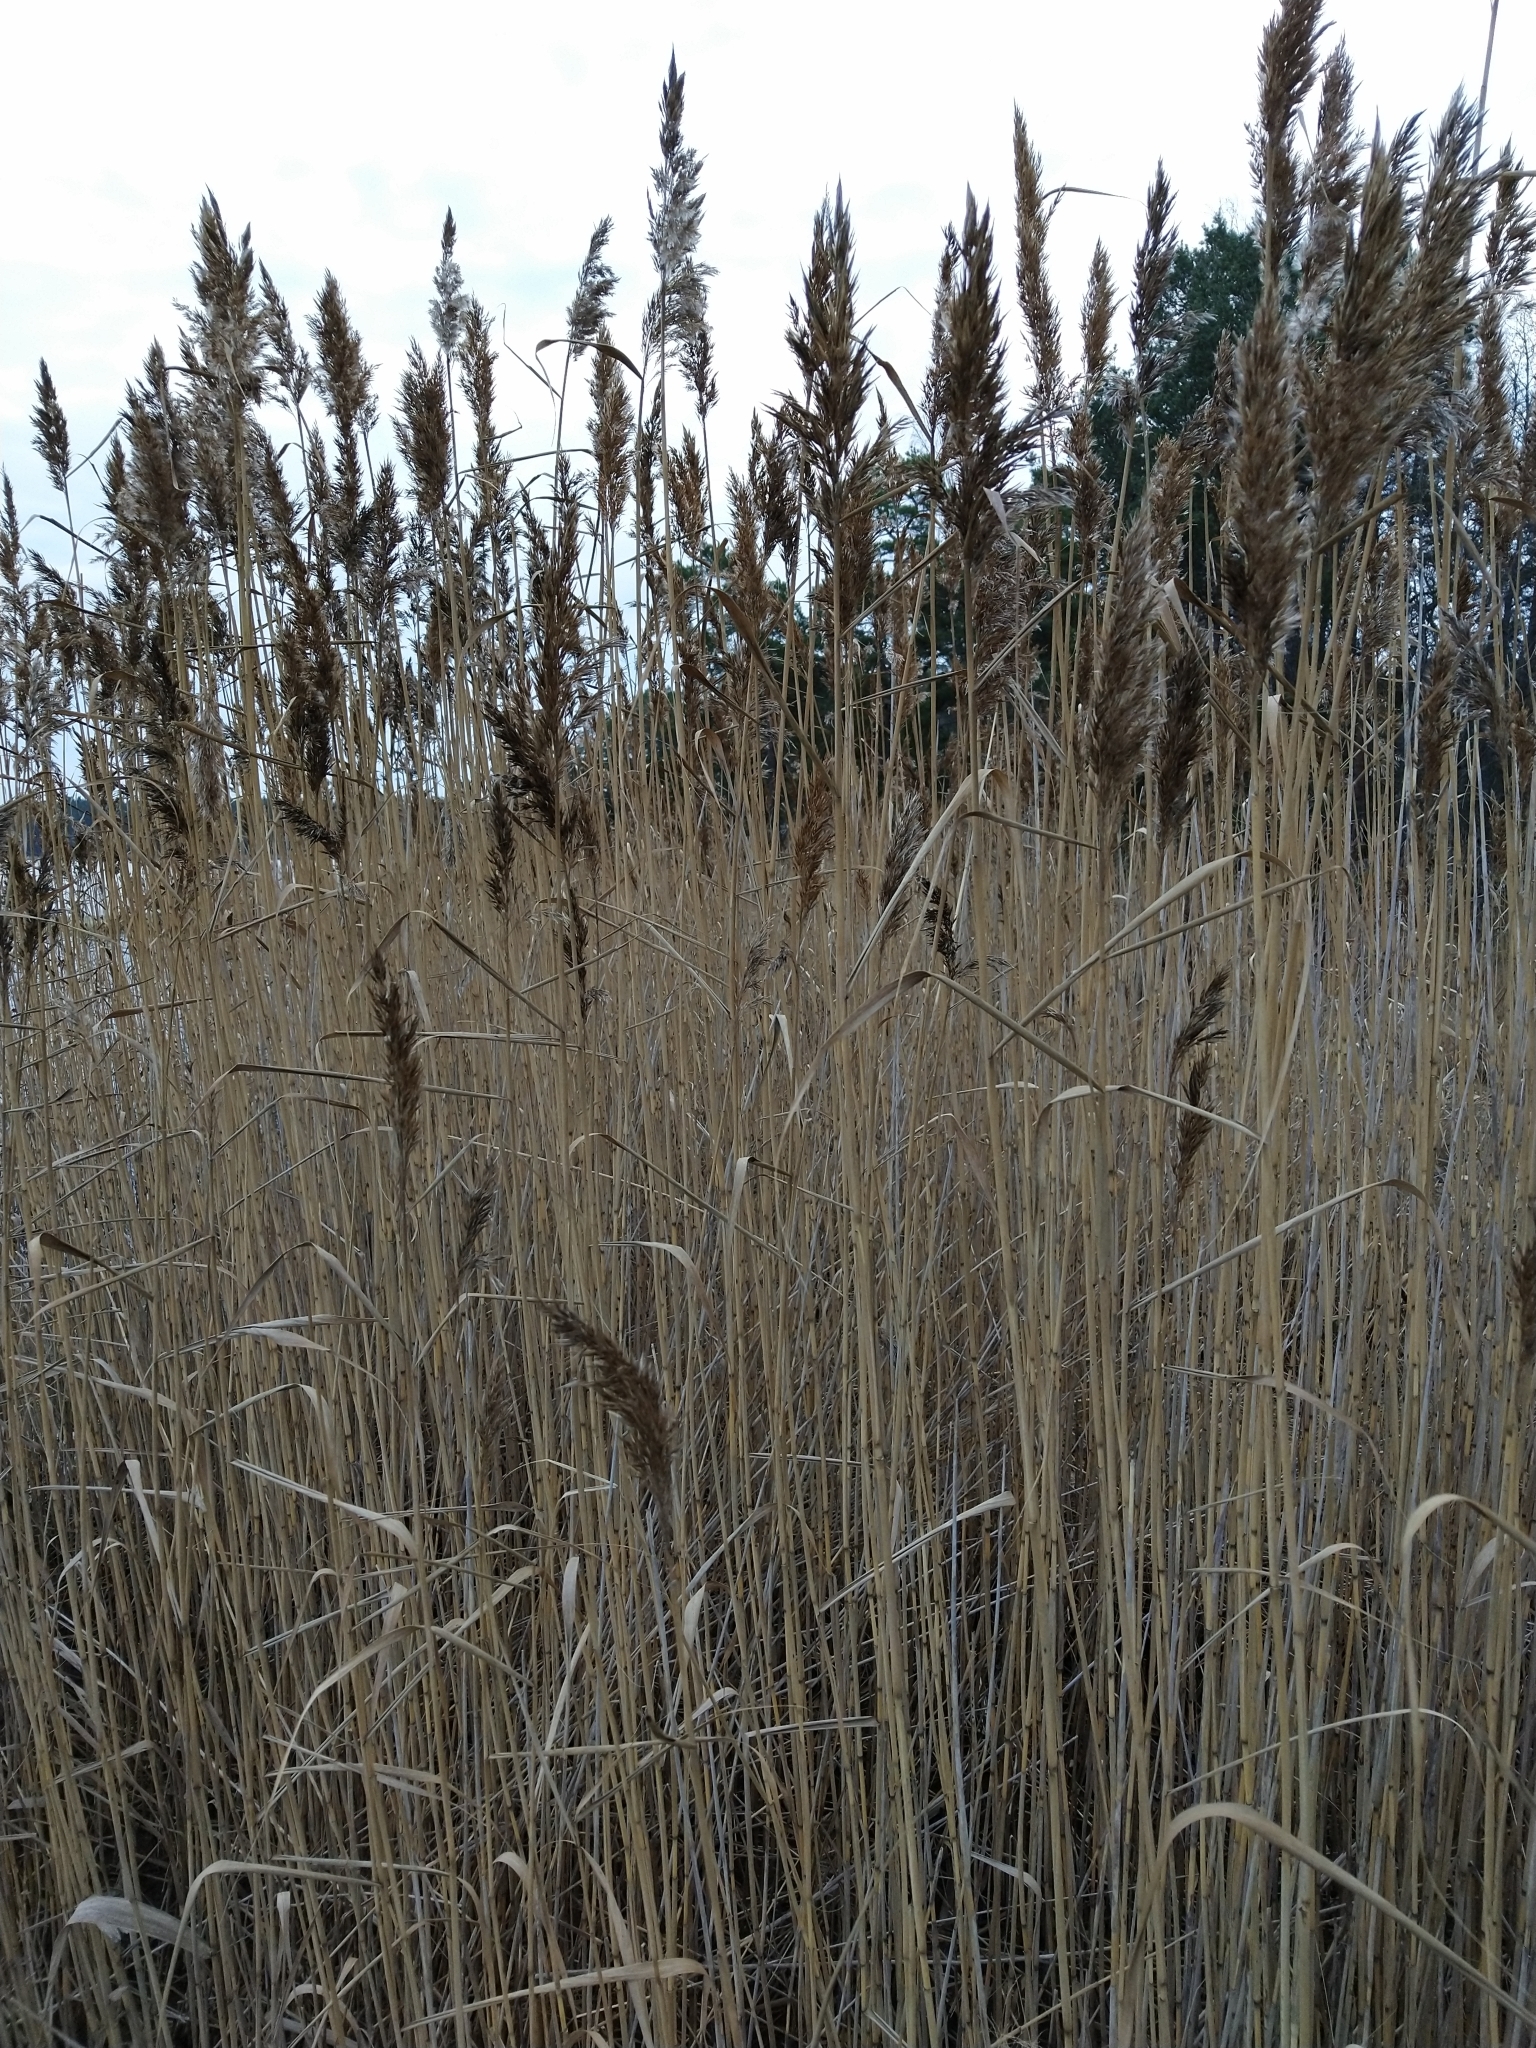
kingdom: Plantae
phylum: Tracheophyta
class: Liliopsida
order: Poales
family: Poaceae
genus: Phragmites
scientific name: Phragmites australis
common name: Common reed
